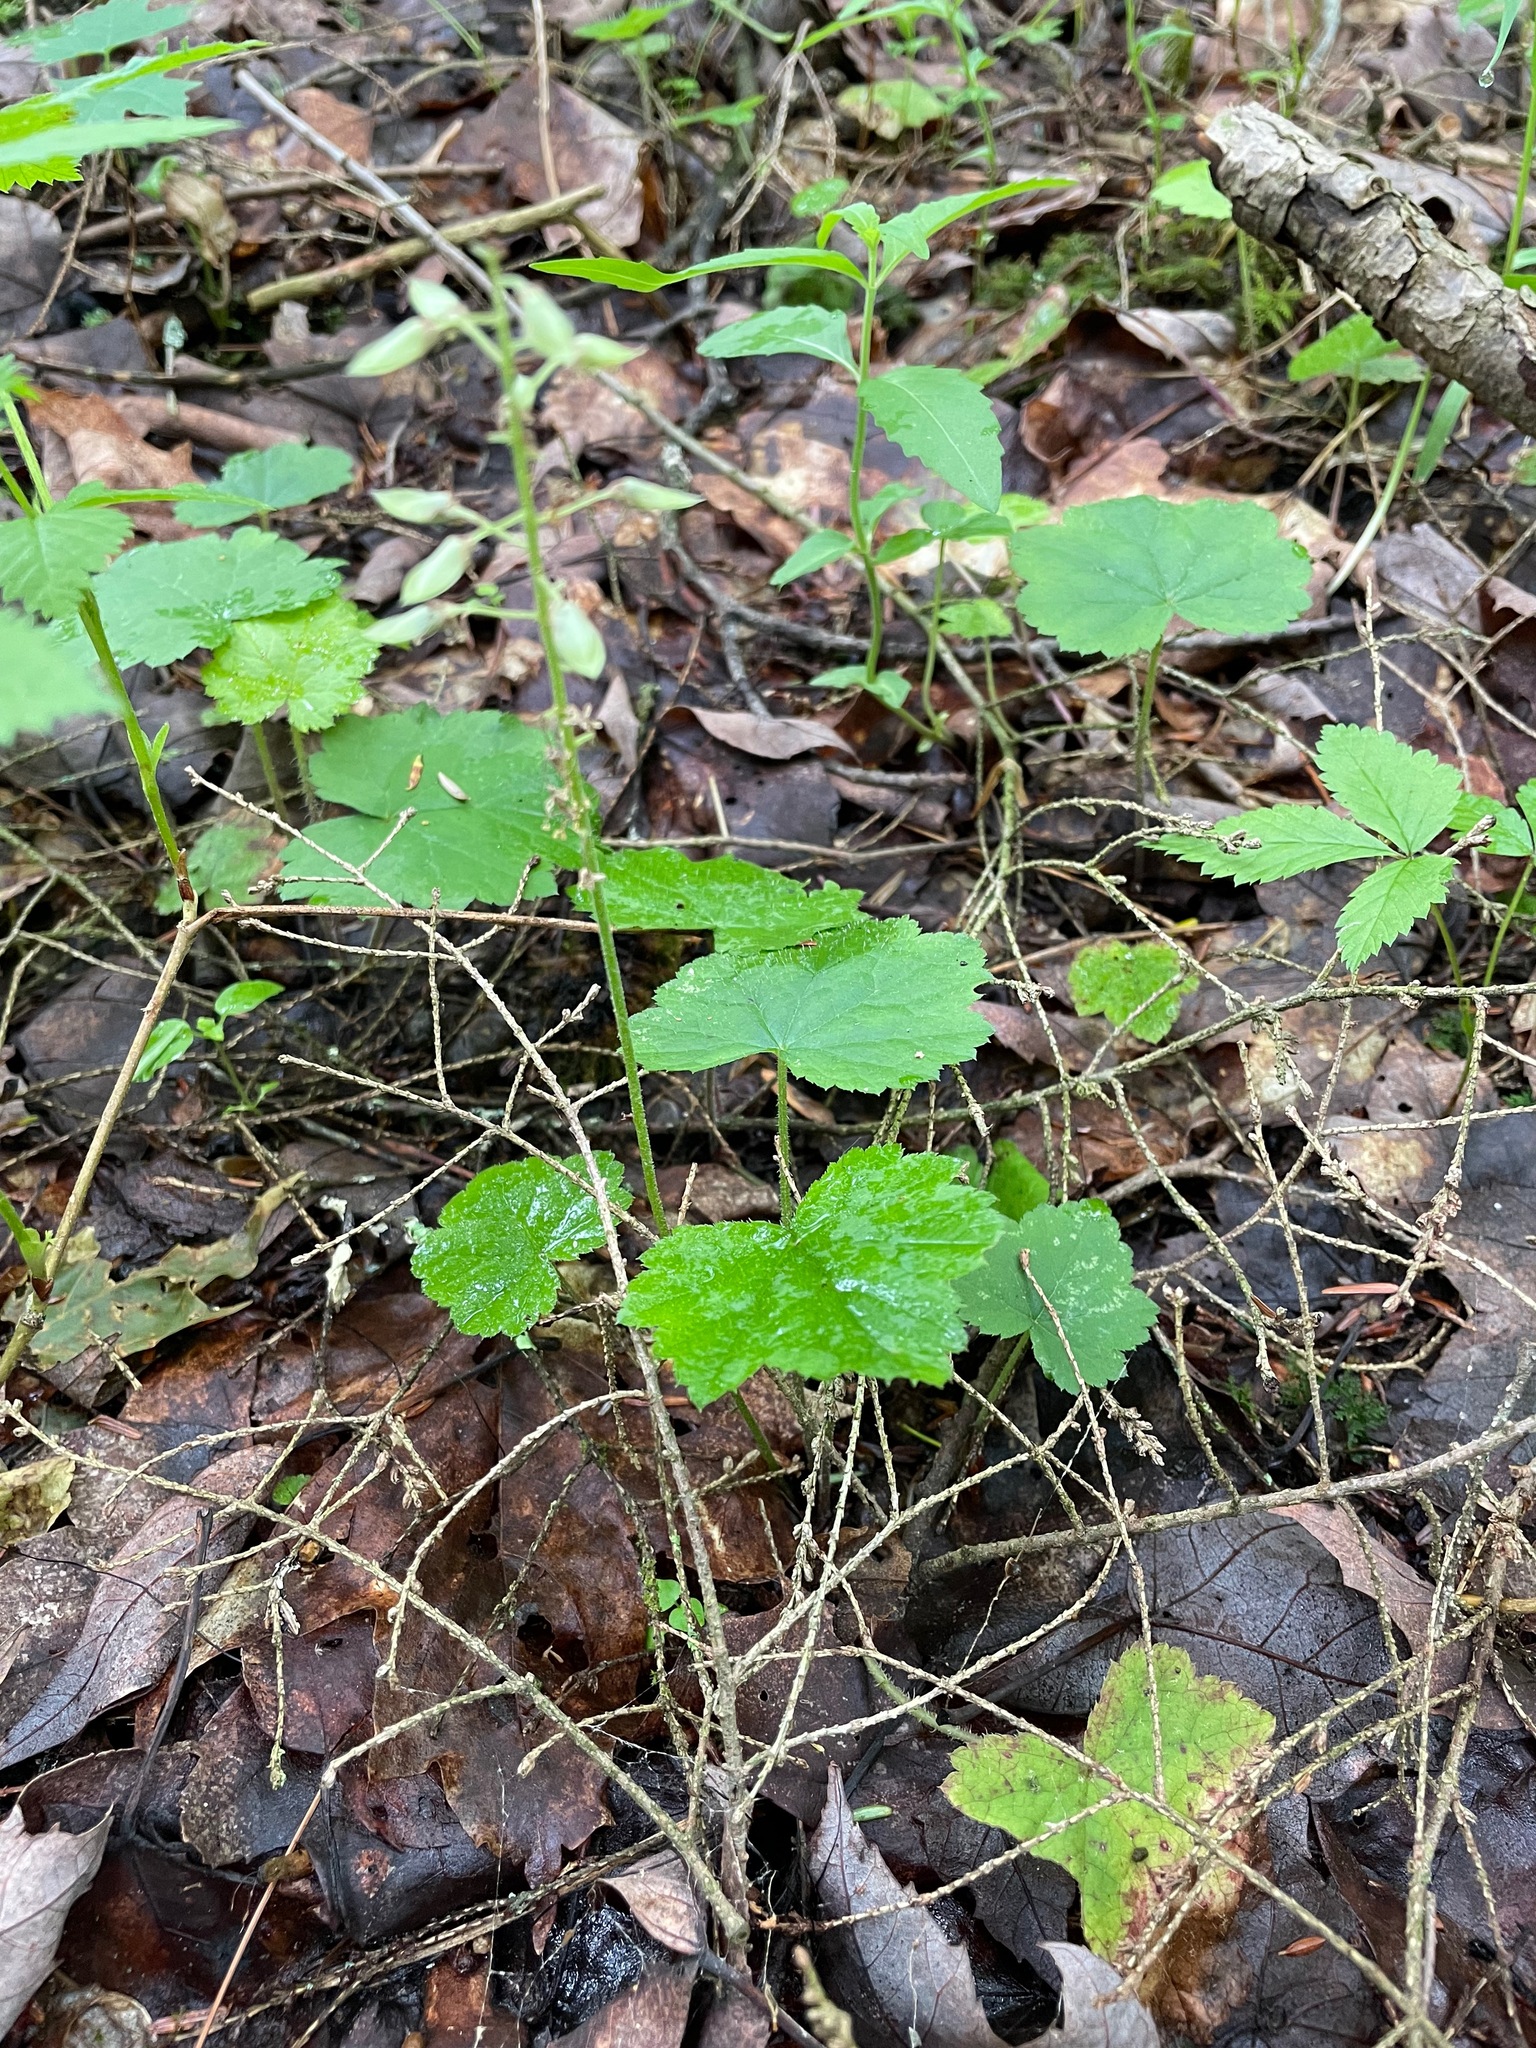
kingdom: Plantae
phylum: Tracheophyta
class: Magnoliopsida
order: Saxifragales
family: Saxifragaceae
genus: Tiarella
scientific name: Tiarella stolonifera
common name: Stoloniferous foamflower
